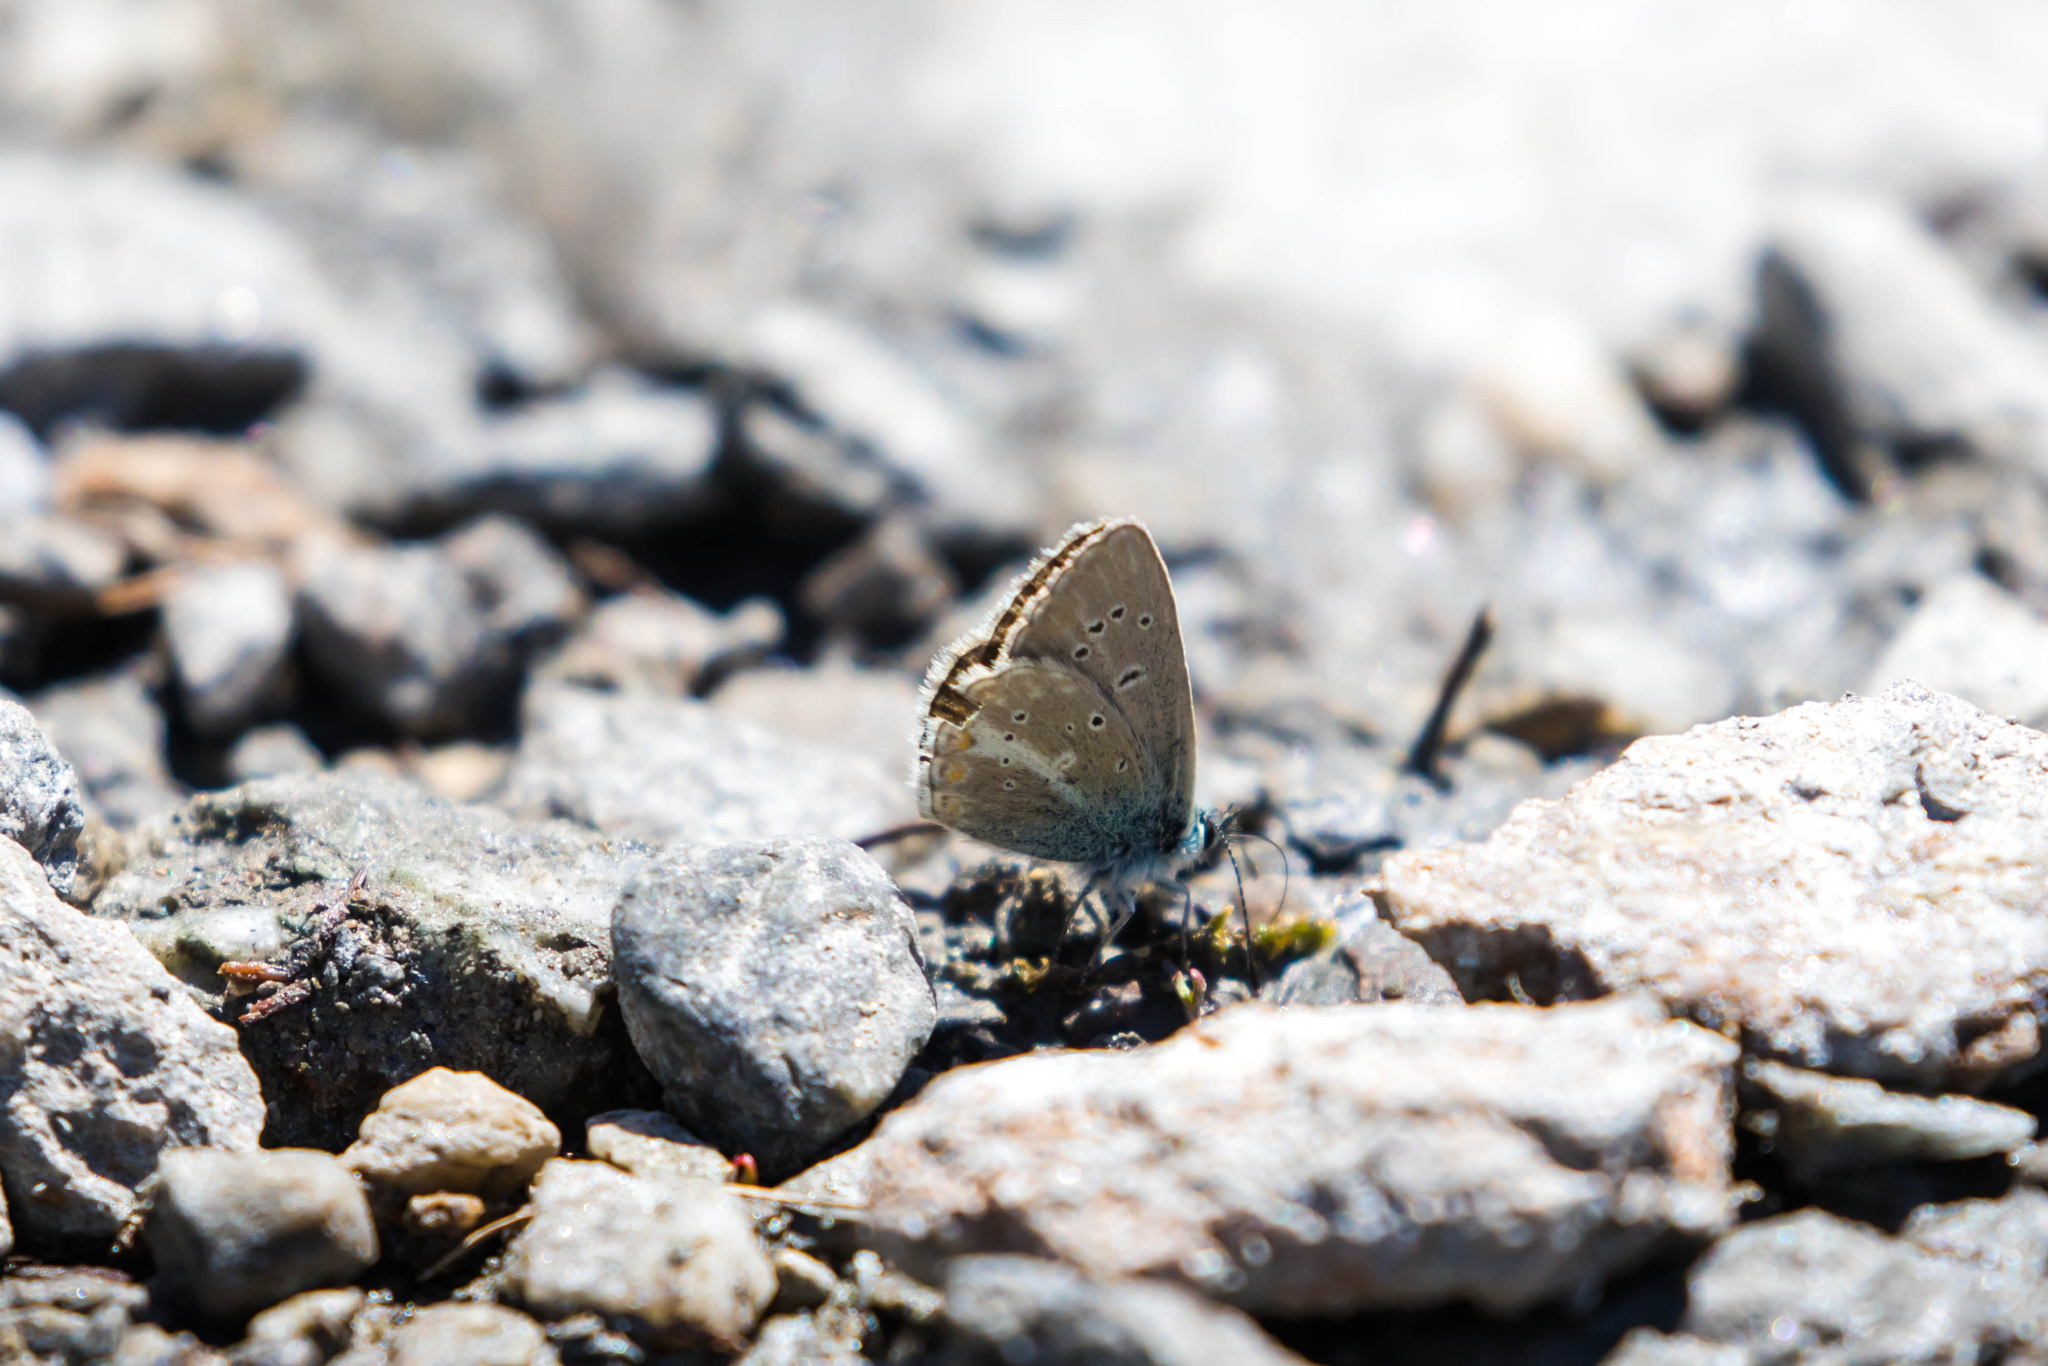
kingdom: Animalia
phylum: Arthropoda
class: Insecta
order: Lepidoptera
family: Lycaenidae
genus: Pseudoaricia
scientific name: Pseudoaricia nicias
